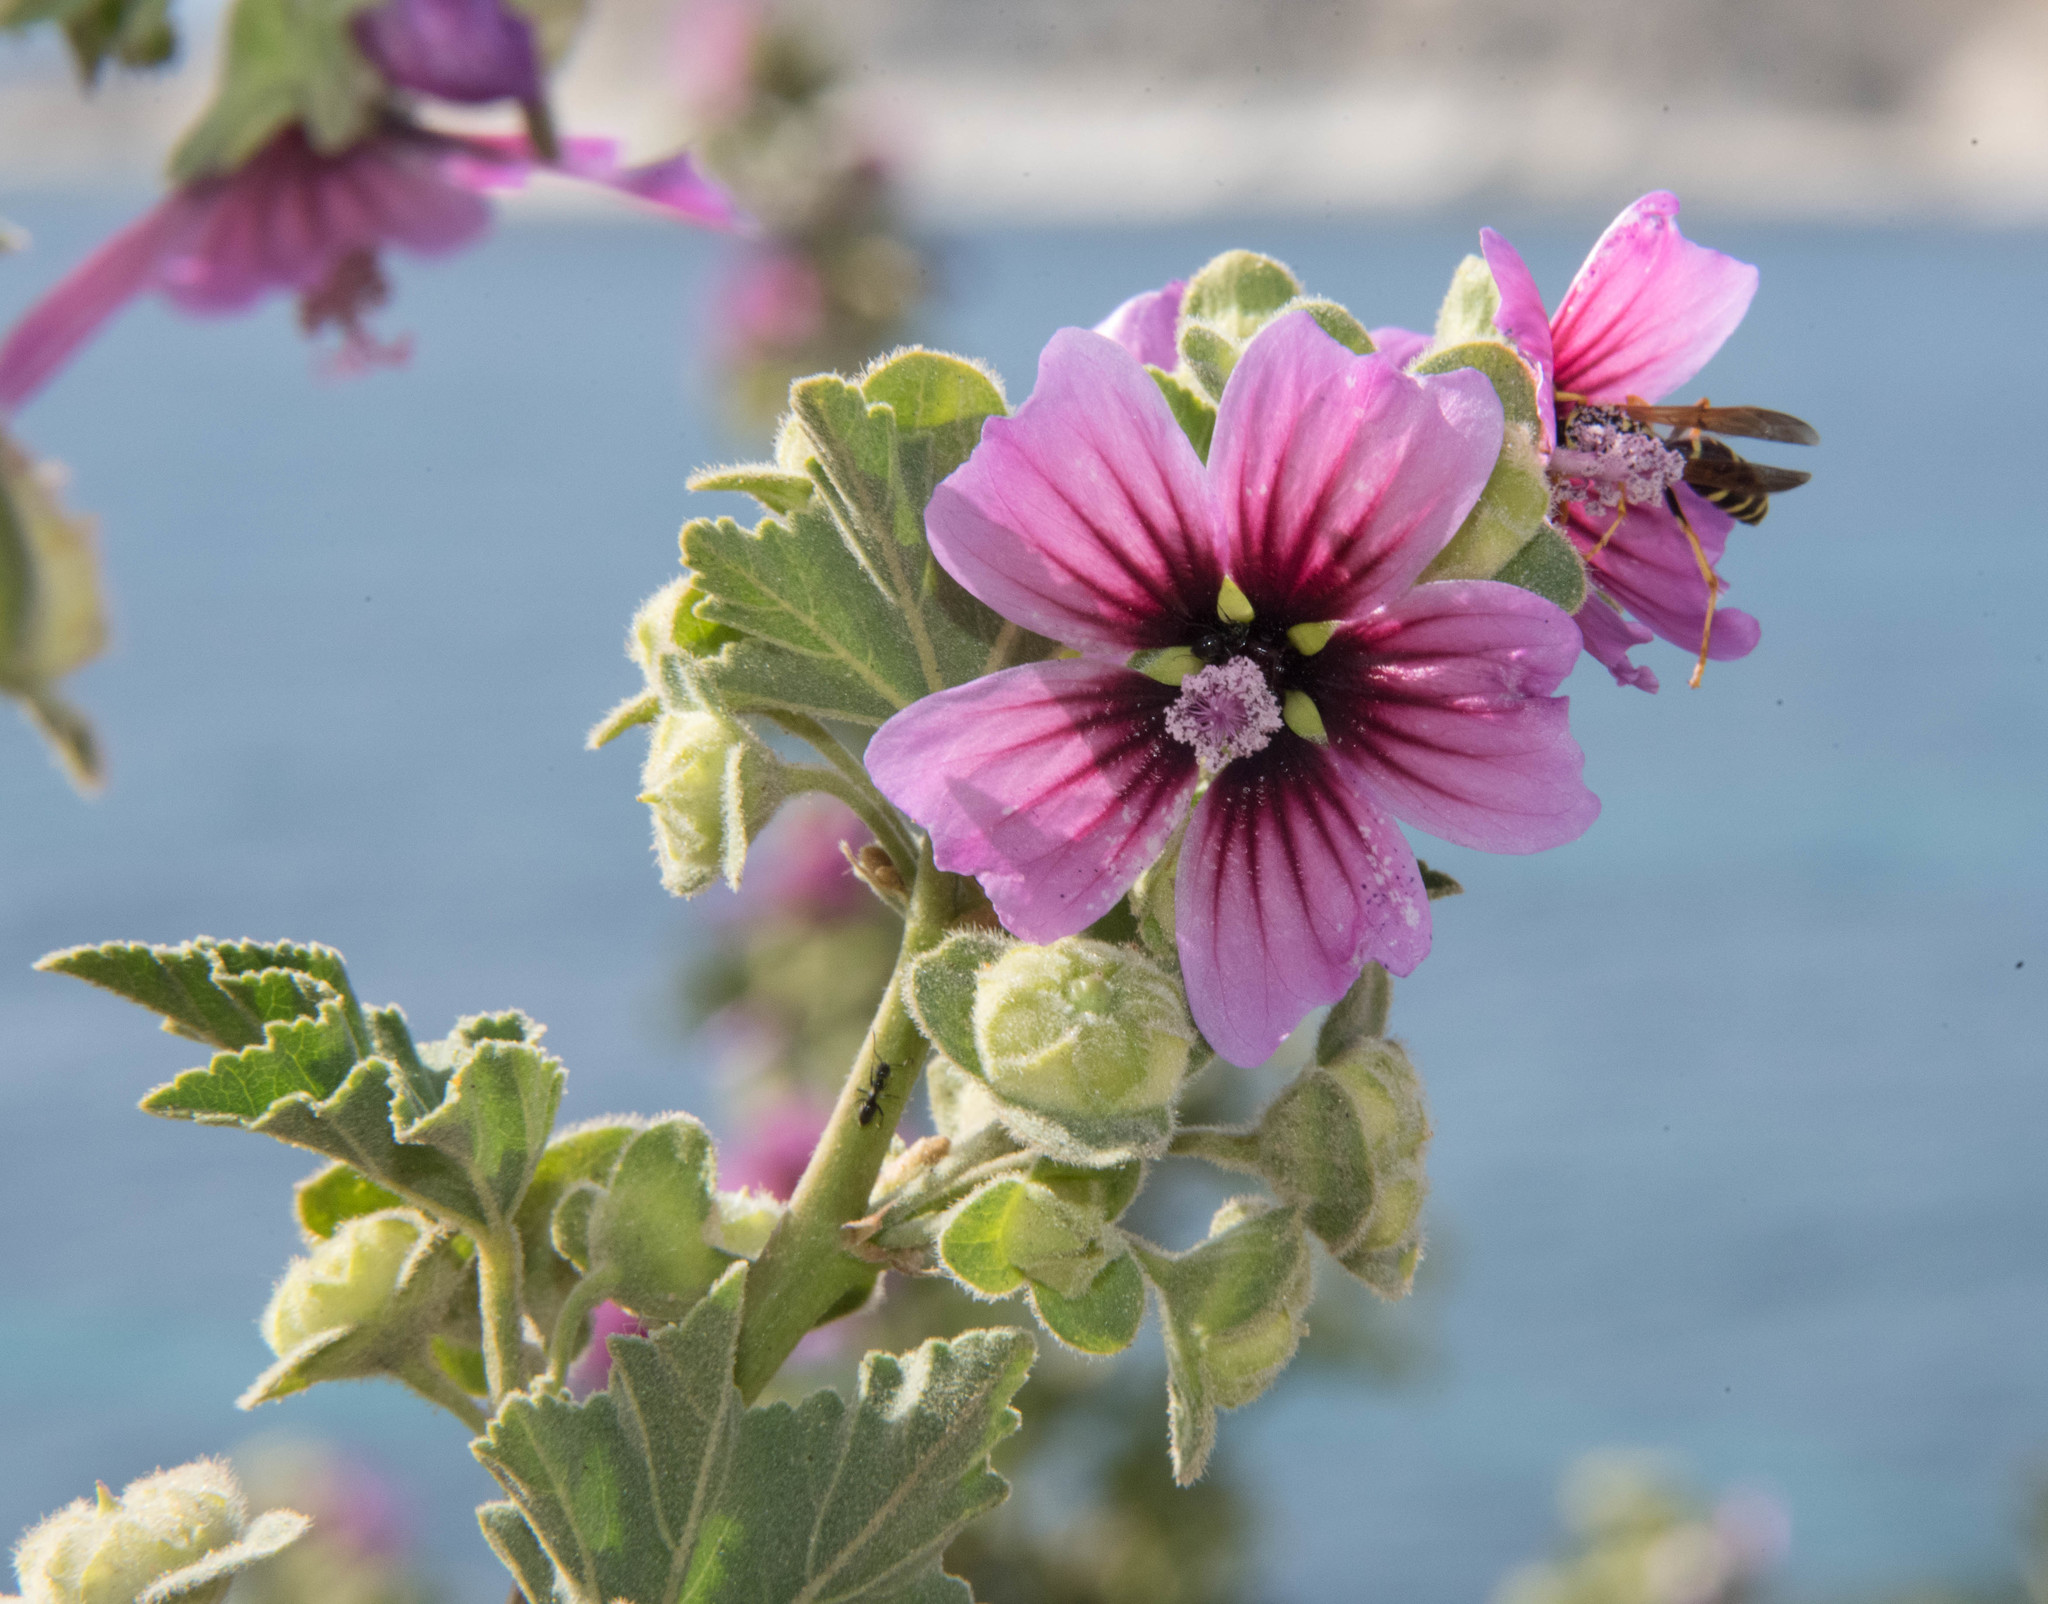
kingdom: Plantae
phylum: Tracheophyta
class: Magnoliopsida
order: Malvales
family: Malvaceae
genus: Malva
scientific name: Malva arborea
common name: Tree mallow
